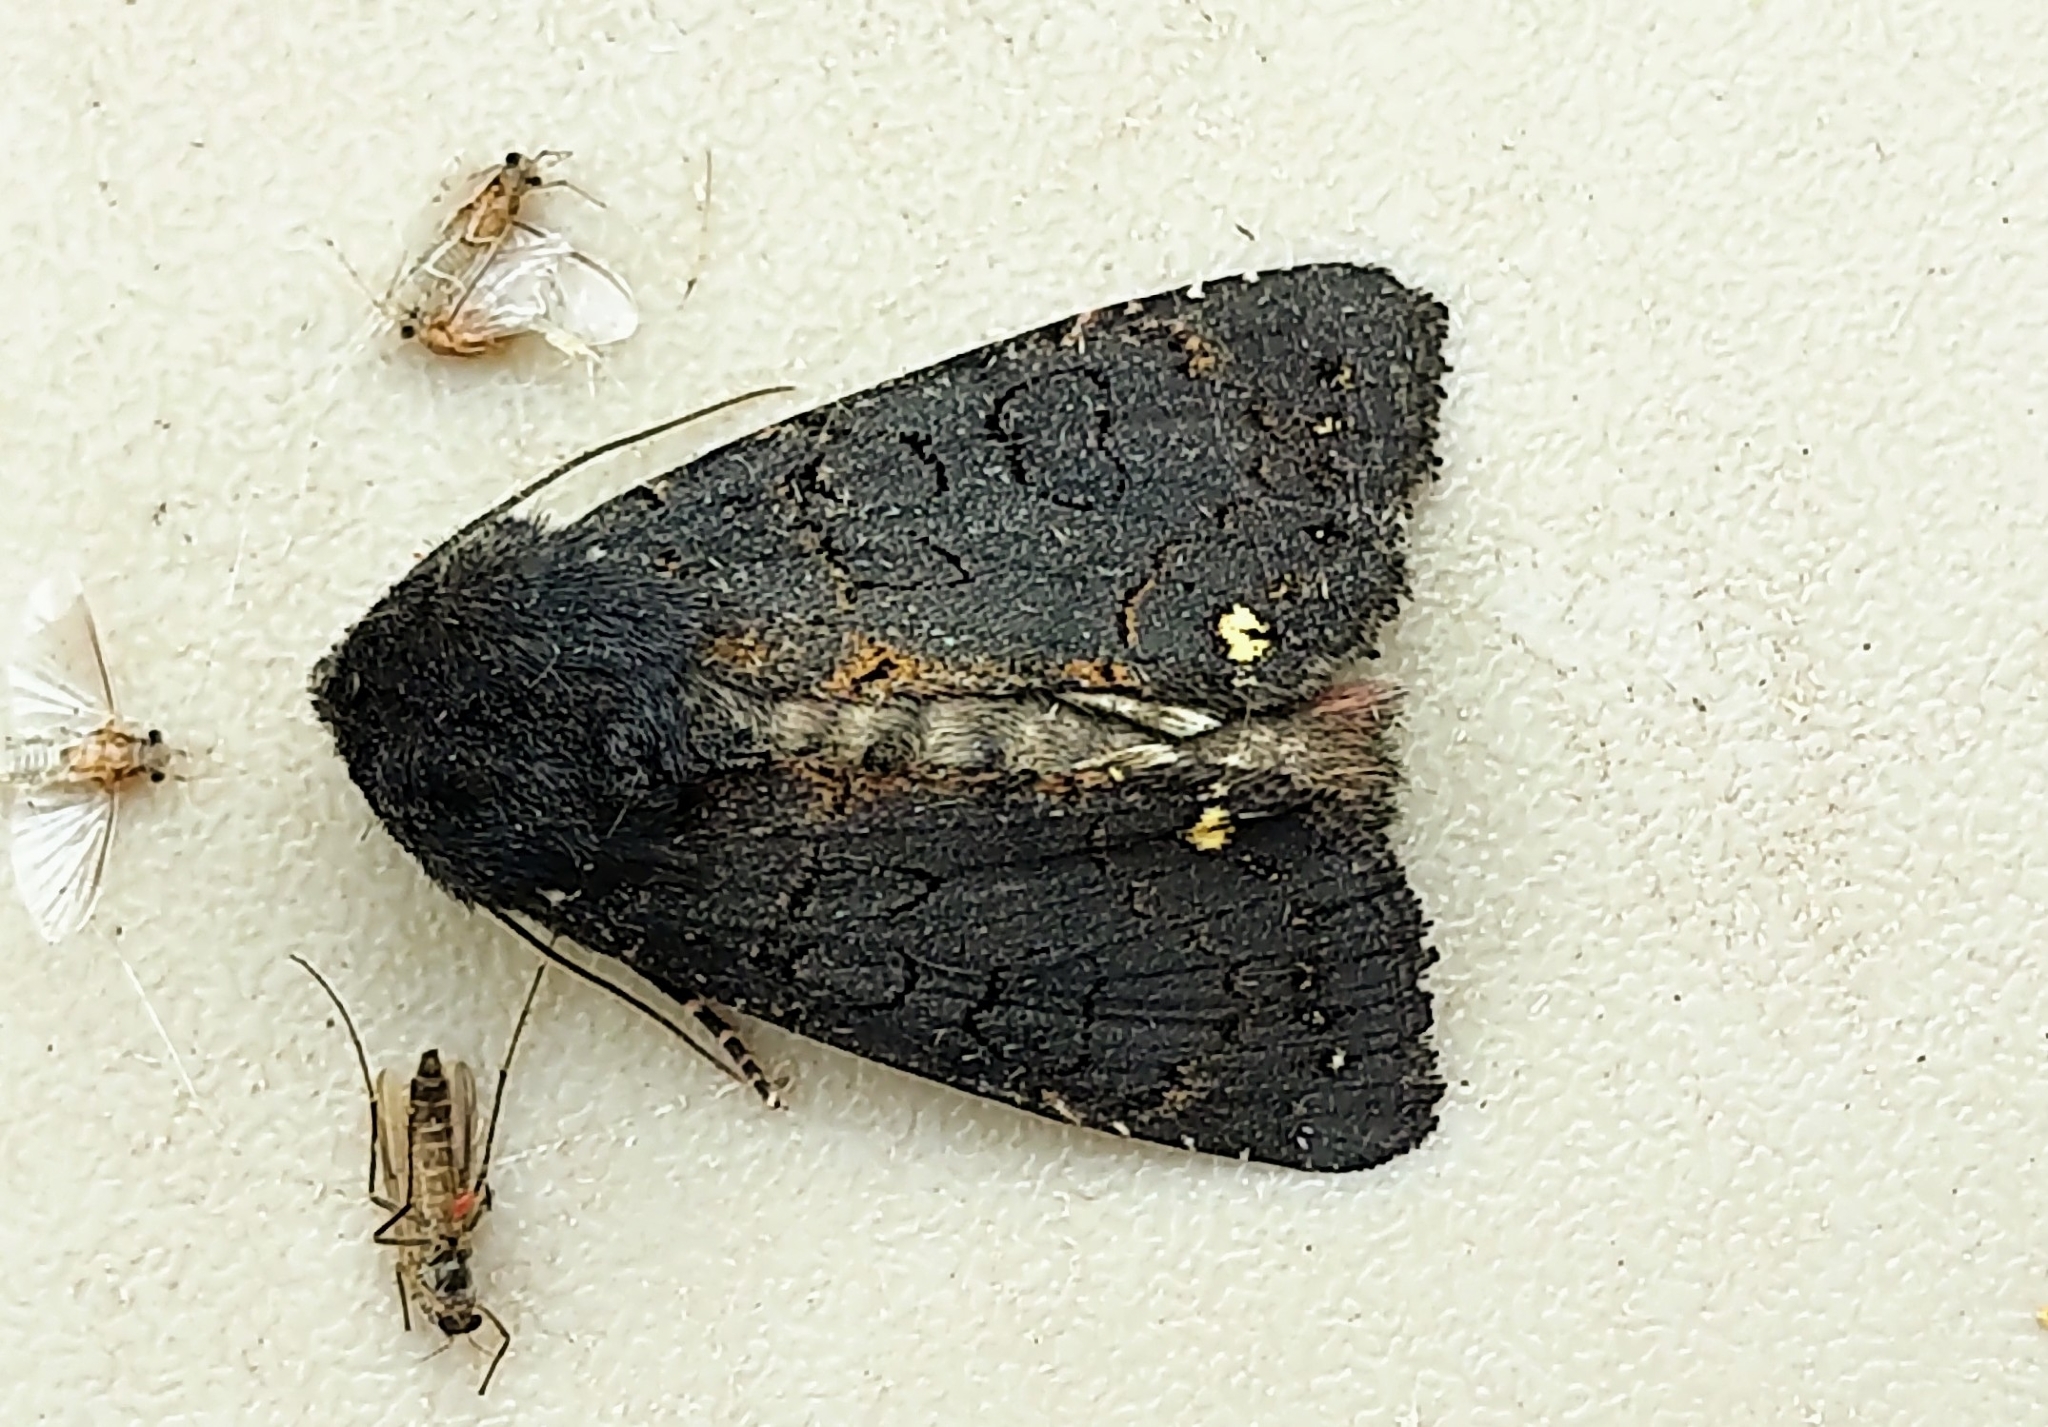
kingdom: Animalia
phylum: Arthropoda
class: Insecta
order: Lepidoptera
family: Noctuidae
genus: Melanchra
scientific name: Melanchra assimilis
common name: Black arches
